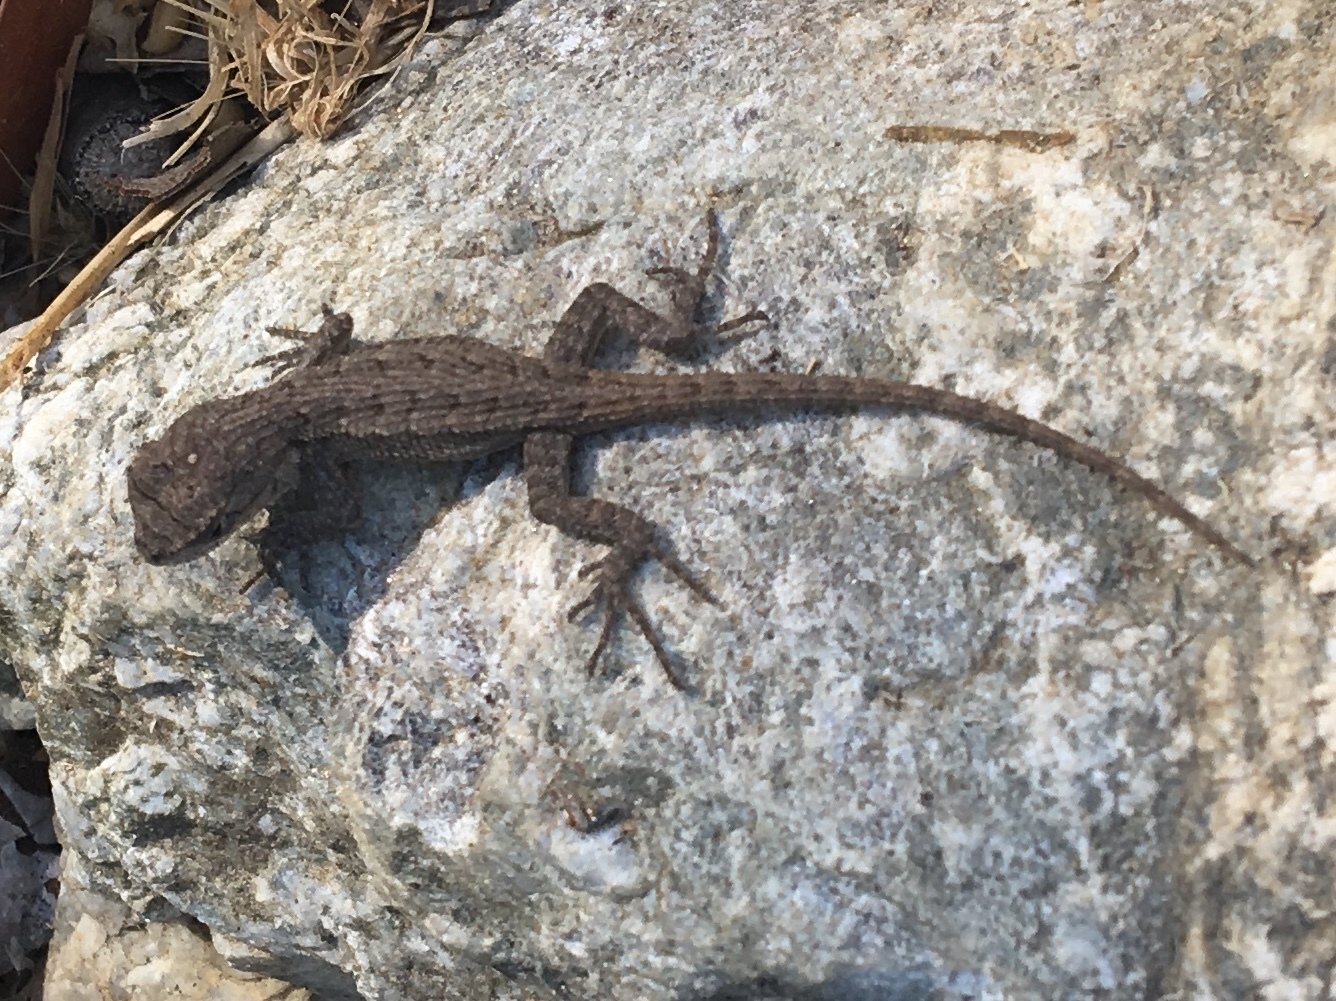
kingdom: Animalia
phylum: Chordata
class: Squamata
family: Phrynosomatidae
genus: Sceloporus
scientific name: Sceloporus occidentalis
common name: Western fence lizard
